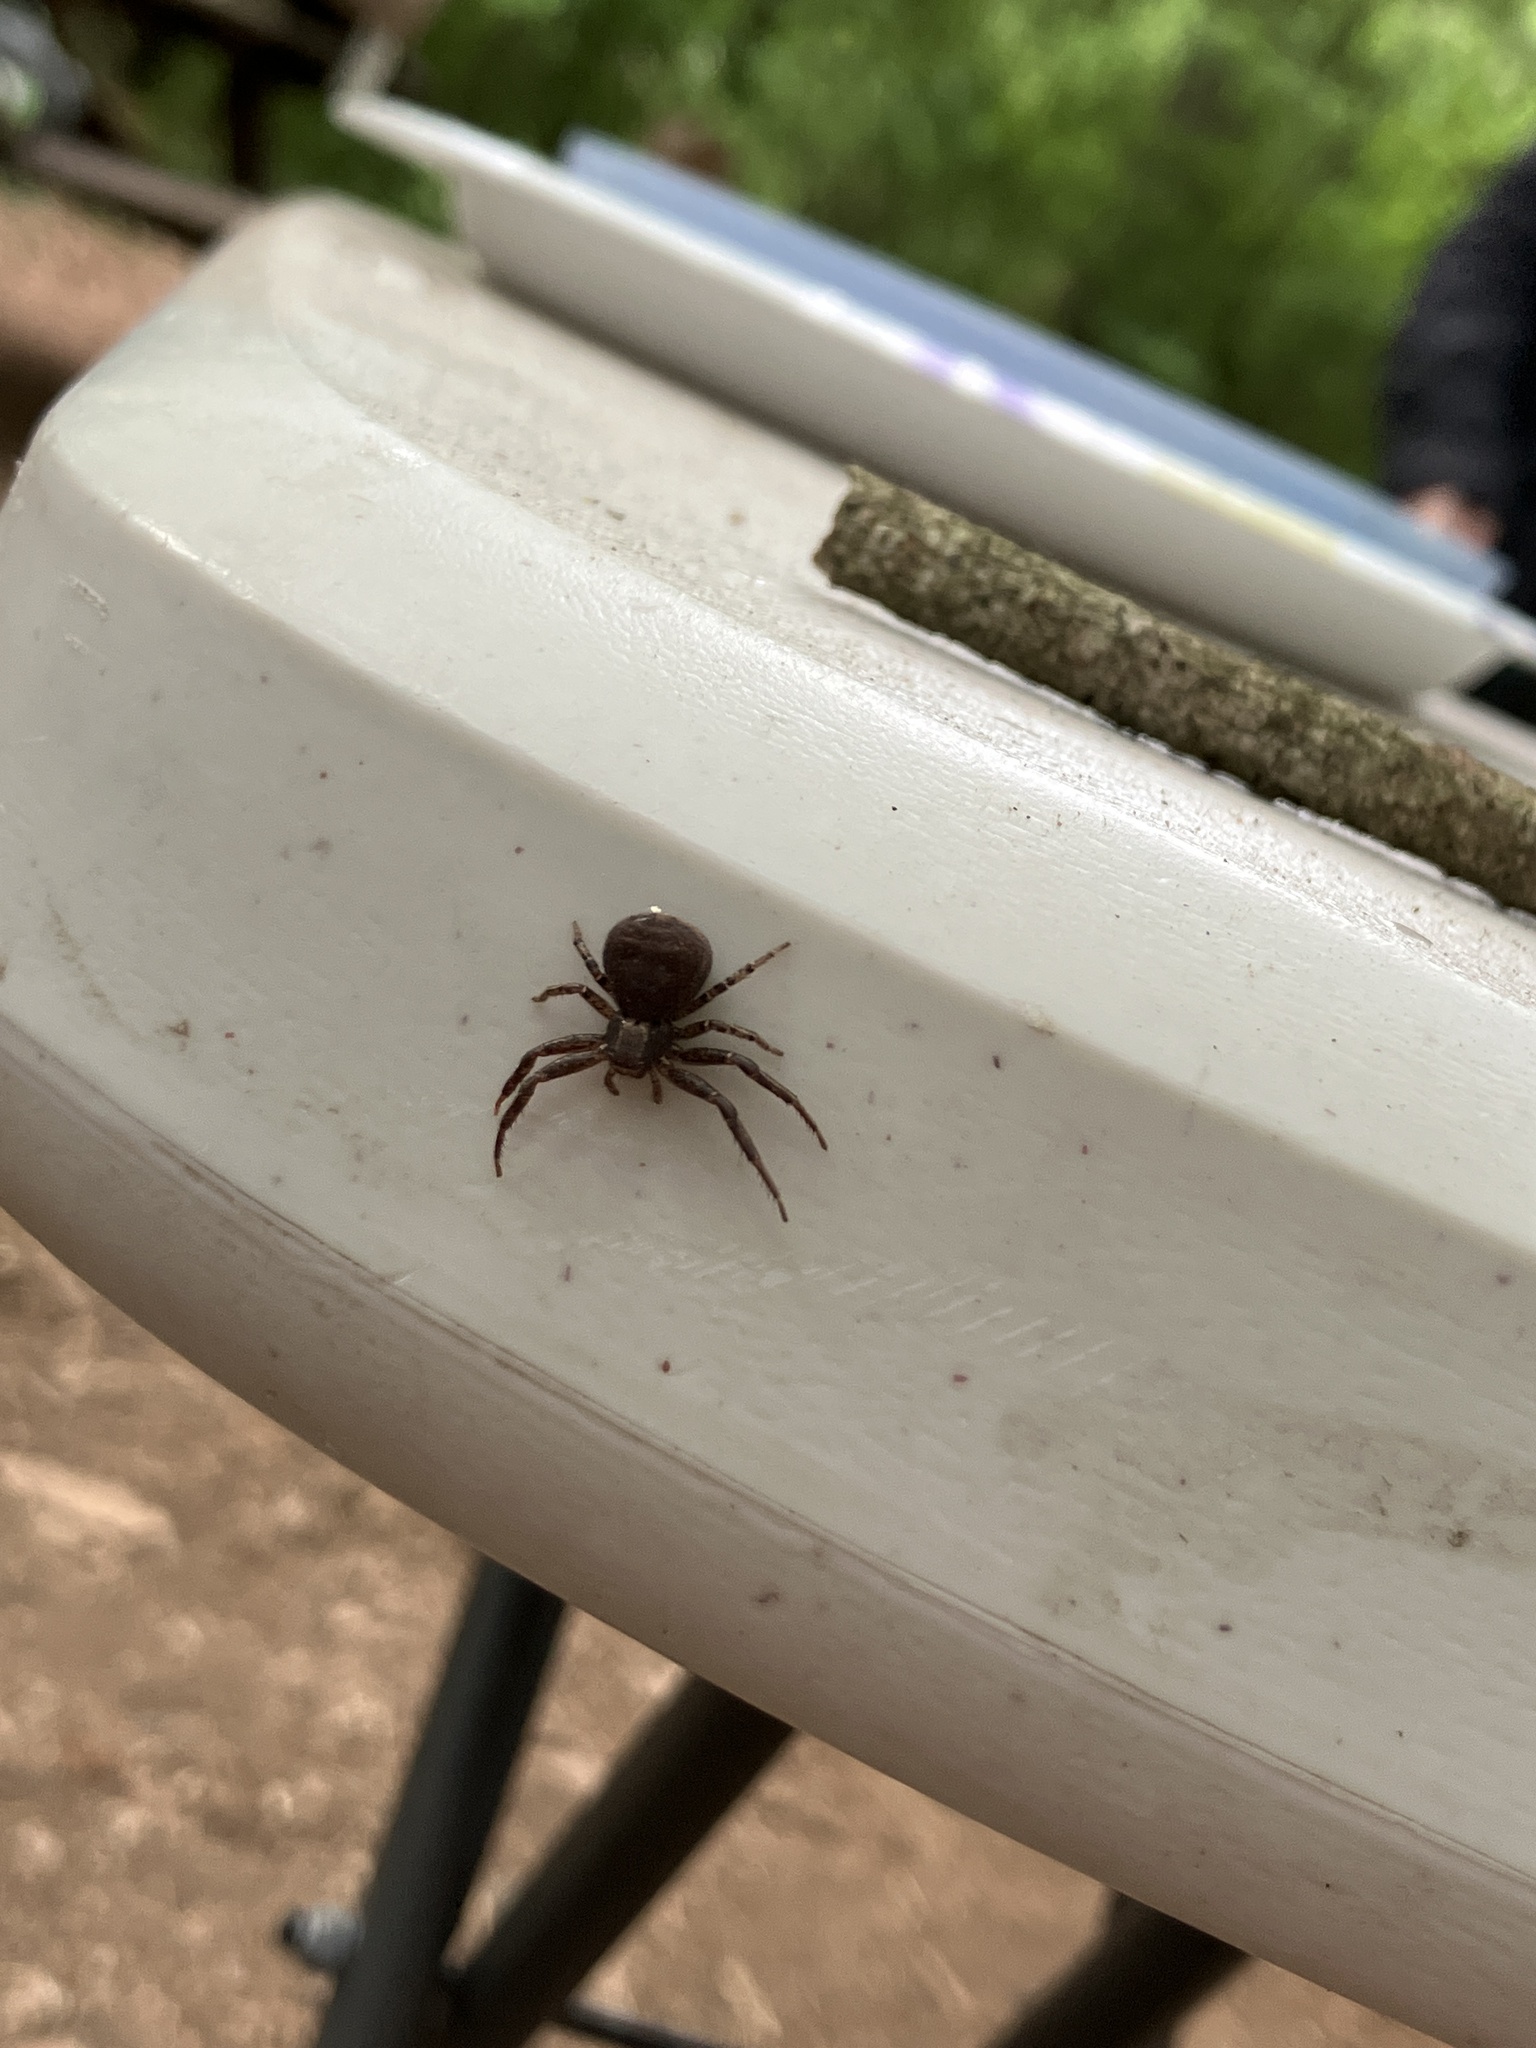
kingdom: Animalia
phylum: Arthropoda
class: Arachnida
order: Araneae
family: Thomisidae
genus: Xysticus
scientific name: Xysticus elegans
